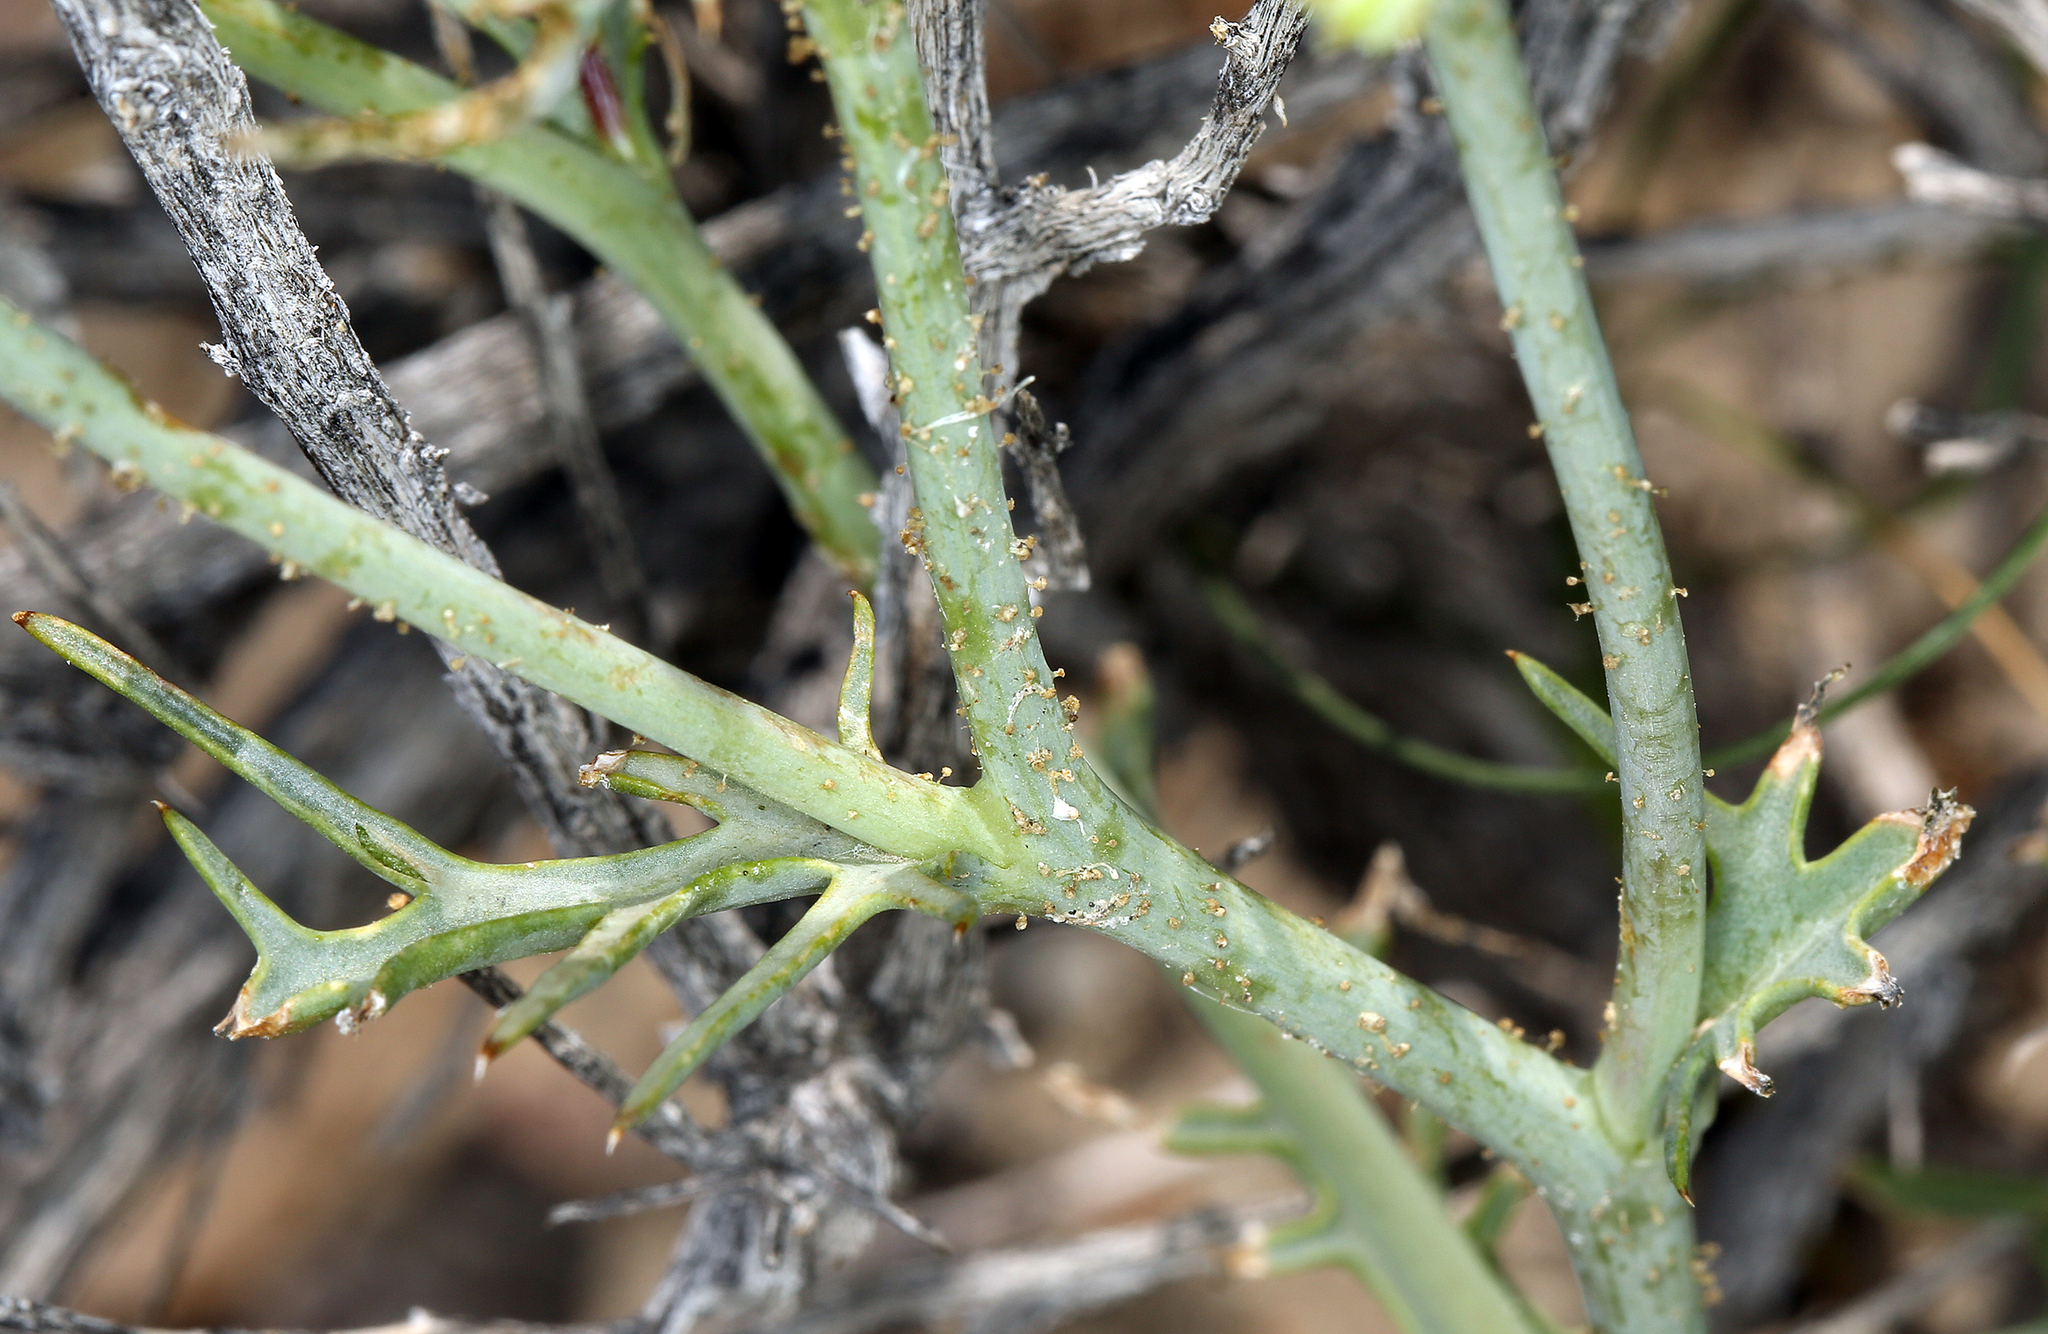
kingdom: Plantae
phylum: Tracheophyta
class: Magnoliopsida
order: Asterales
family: Asteraceae
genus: Calycoseris
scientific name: Calycoseris wrightii
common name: White tackstem
